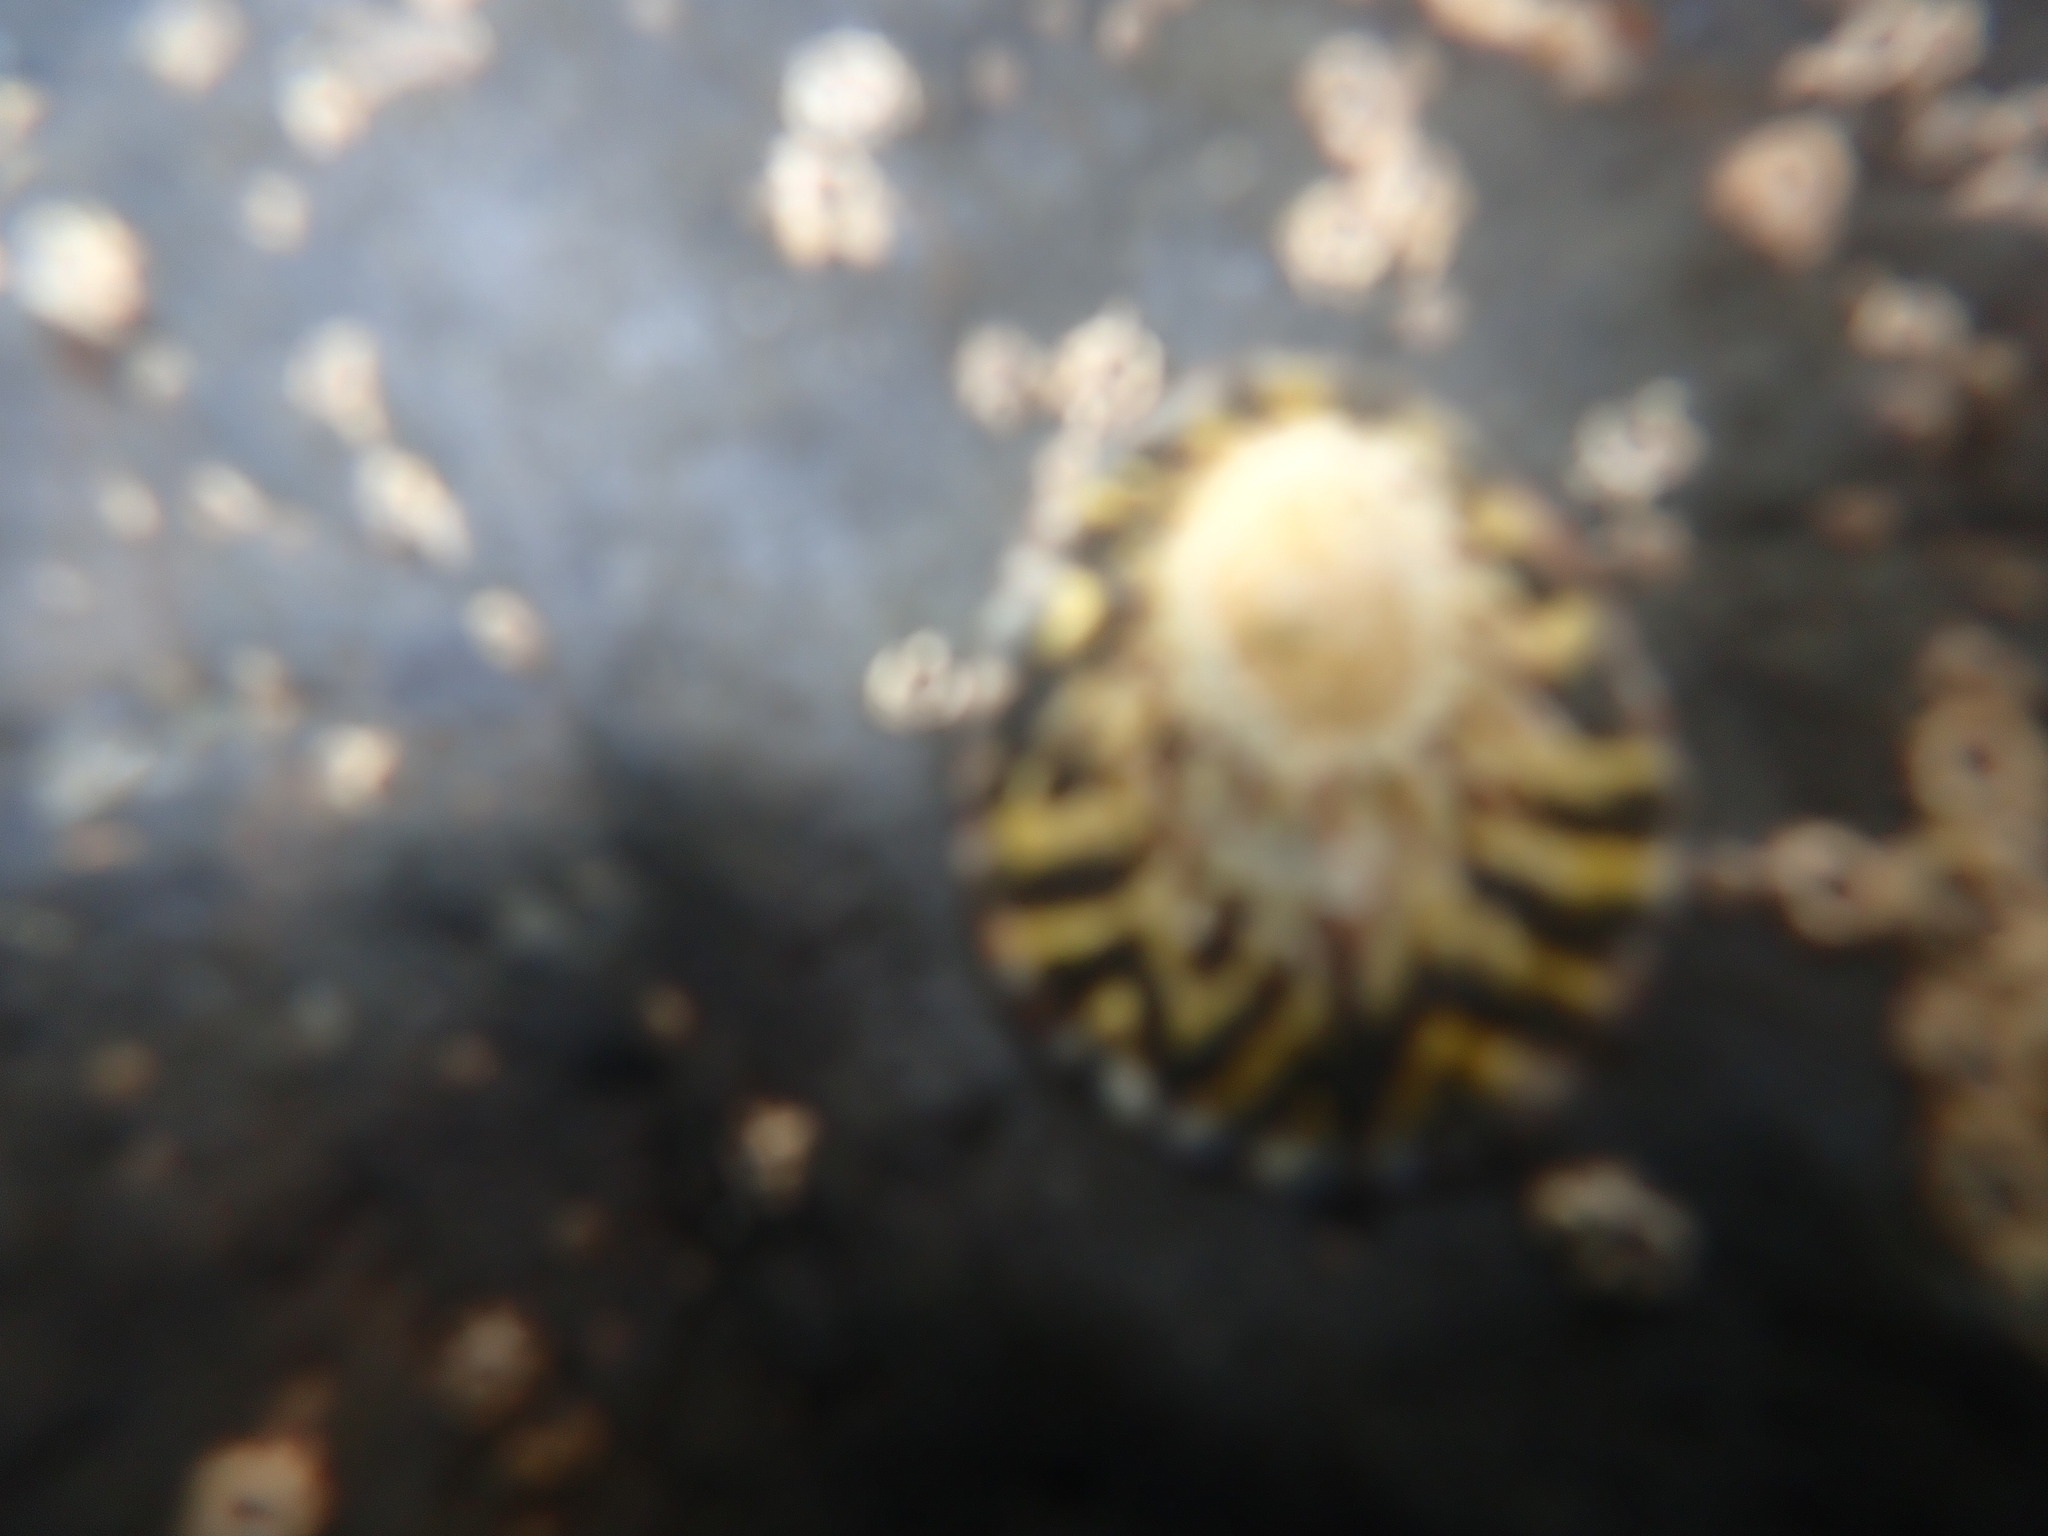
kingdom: Animalia
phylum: Mollusca
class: Gastropoda
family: Nacellidae
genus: Cellana
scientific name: Cellana radians
